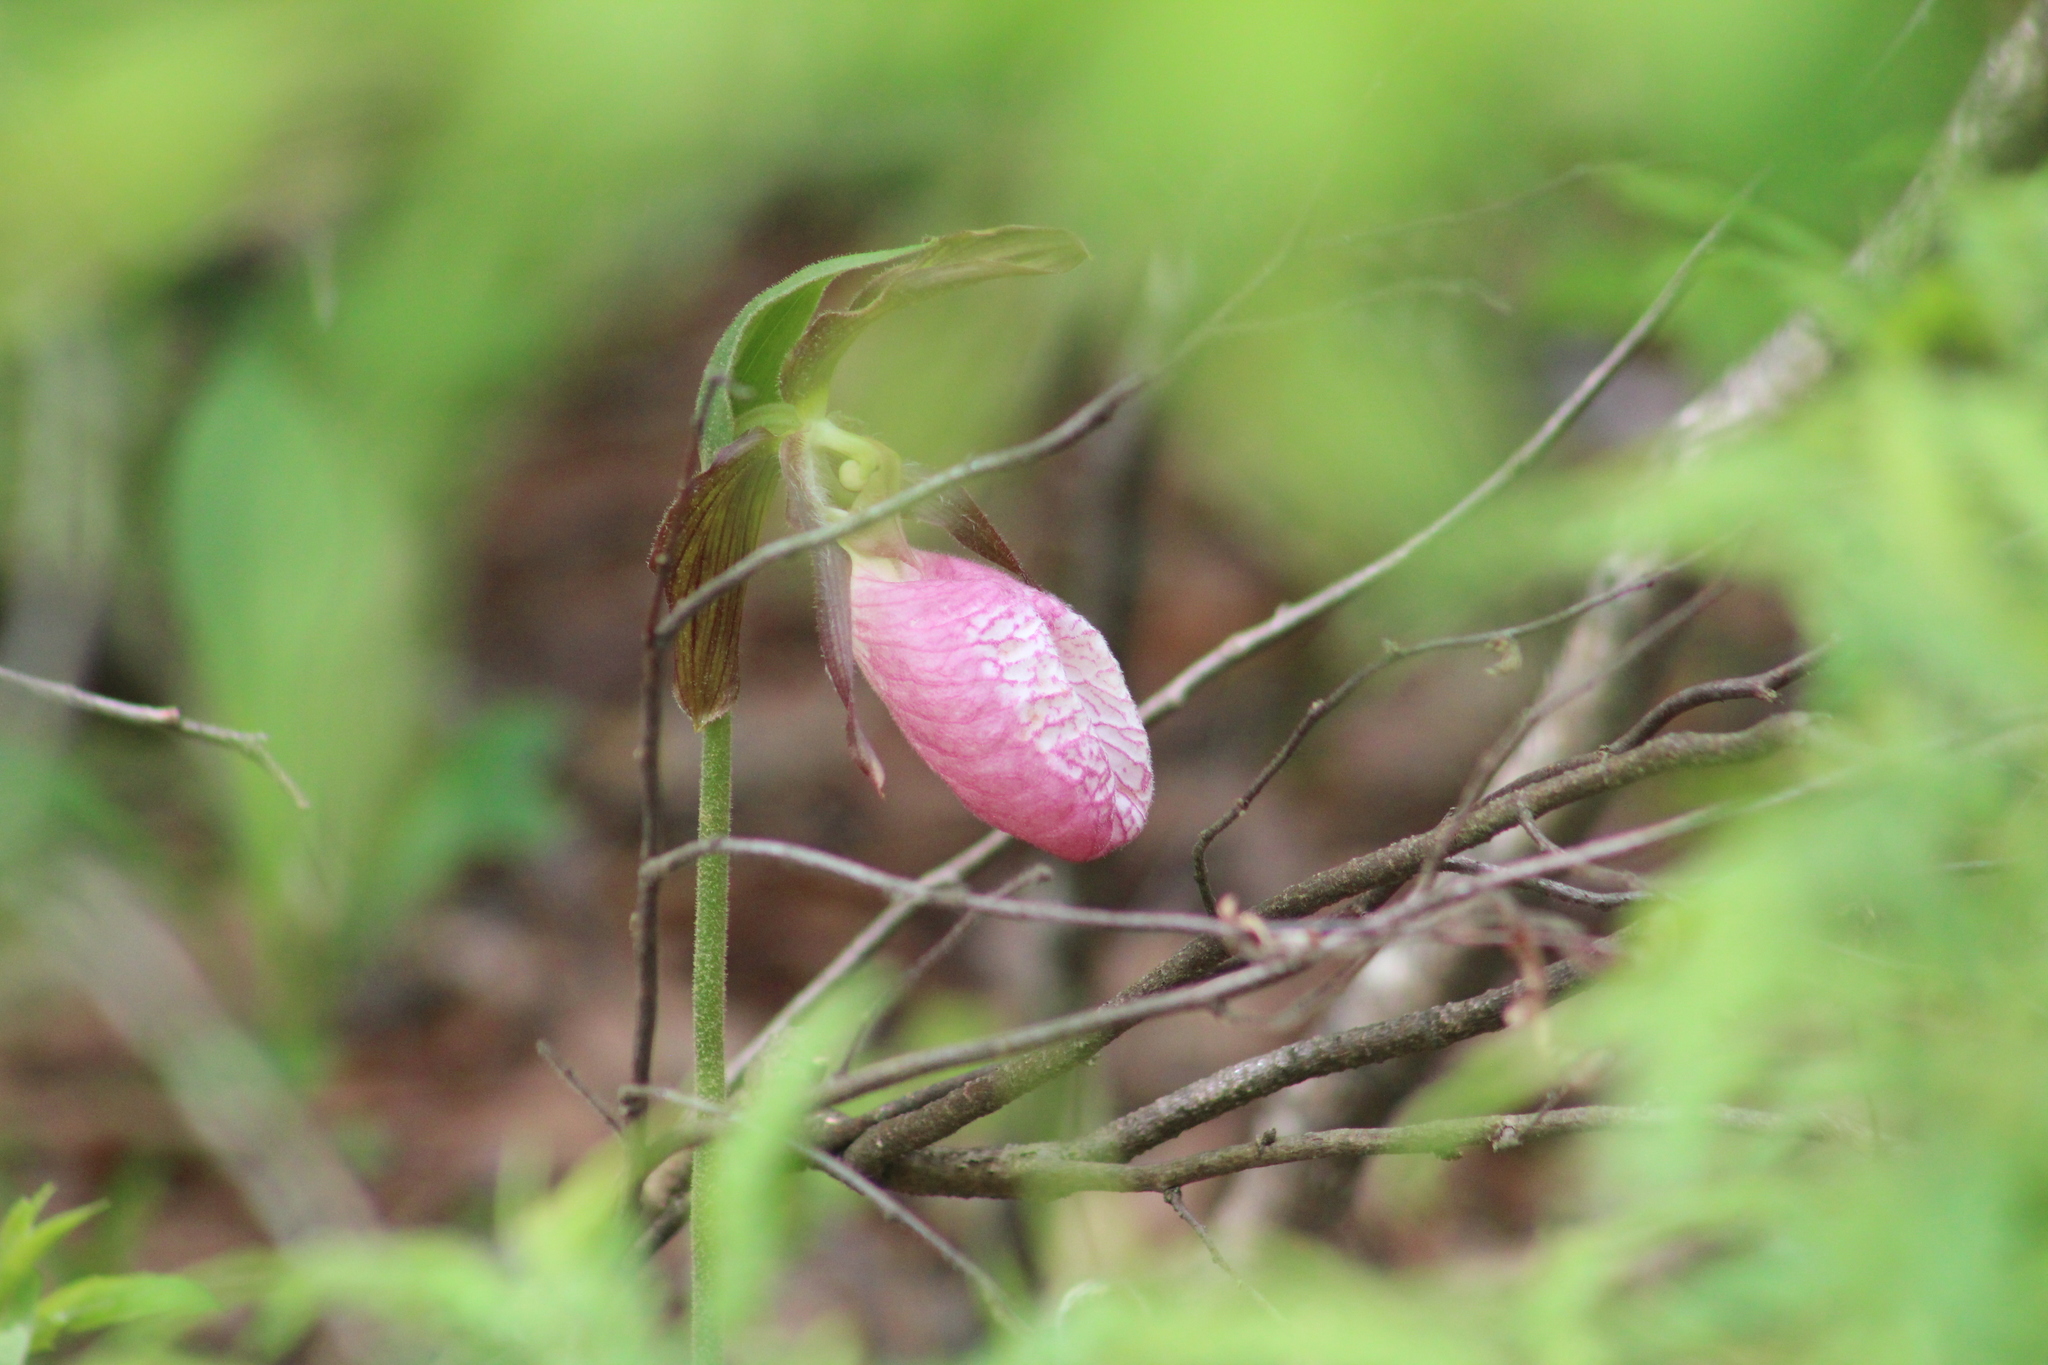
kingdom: Plantae
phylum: Tracheophyta
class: Liliopsida
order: Asparagales
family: Orchidaceae
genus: Cypripedium
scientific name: Cypripedium acaule
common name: Pink lady's-slipper
